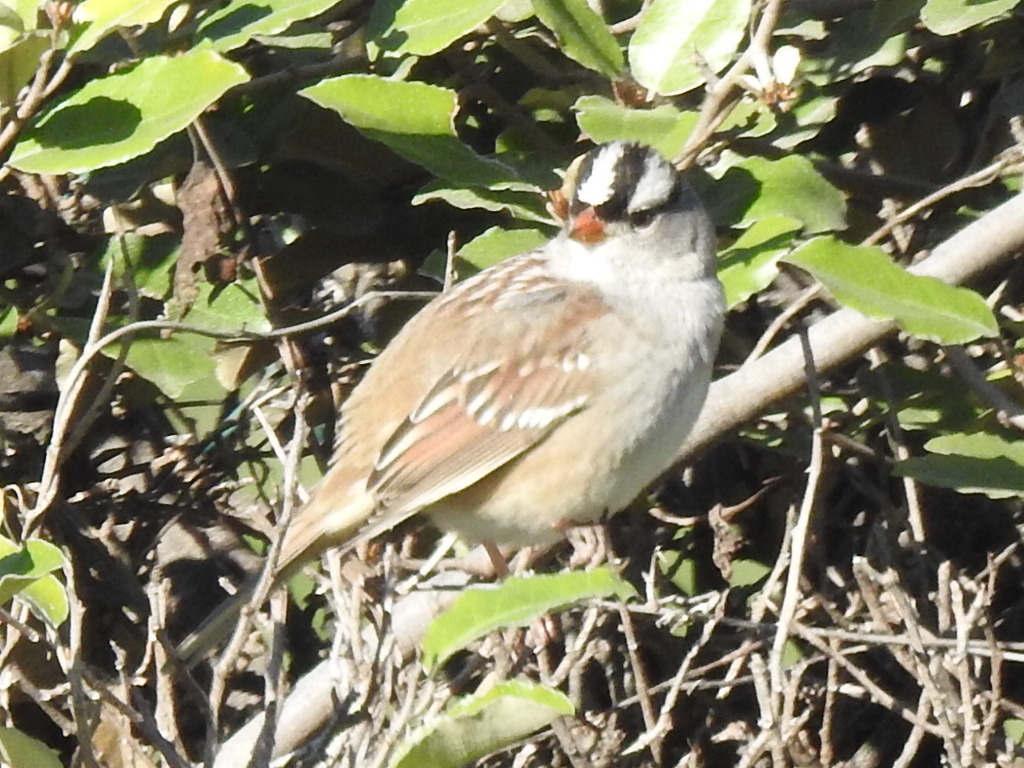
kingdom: Animalia
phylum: Chordata
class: Aves
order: Passeriformes
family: Passerellidae
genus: Zonotrichia
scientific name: Zonotrichia leucophrys
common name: White-crowned sparrow
